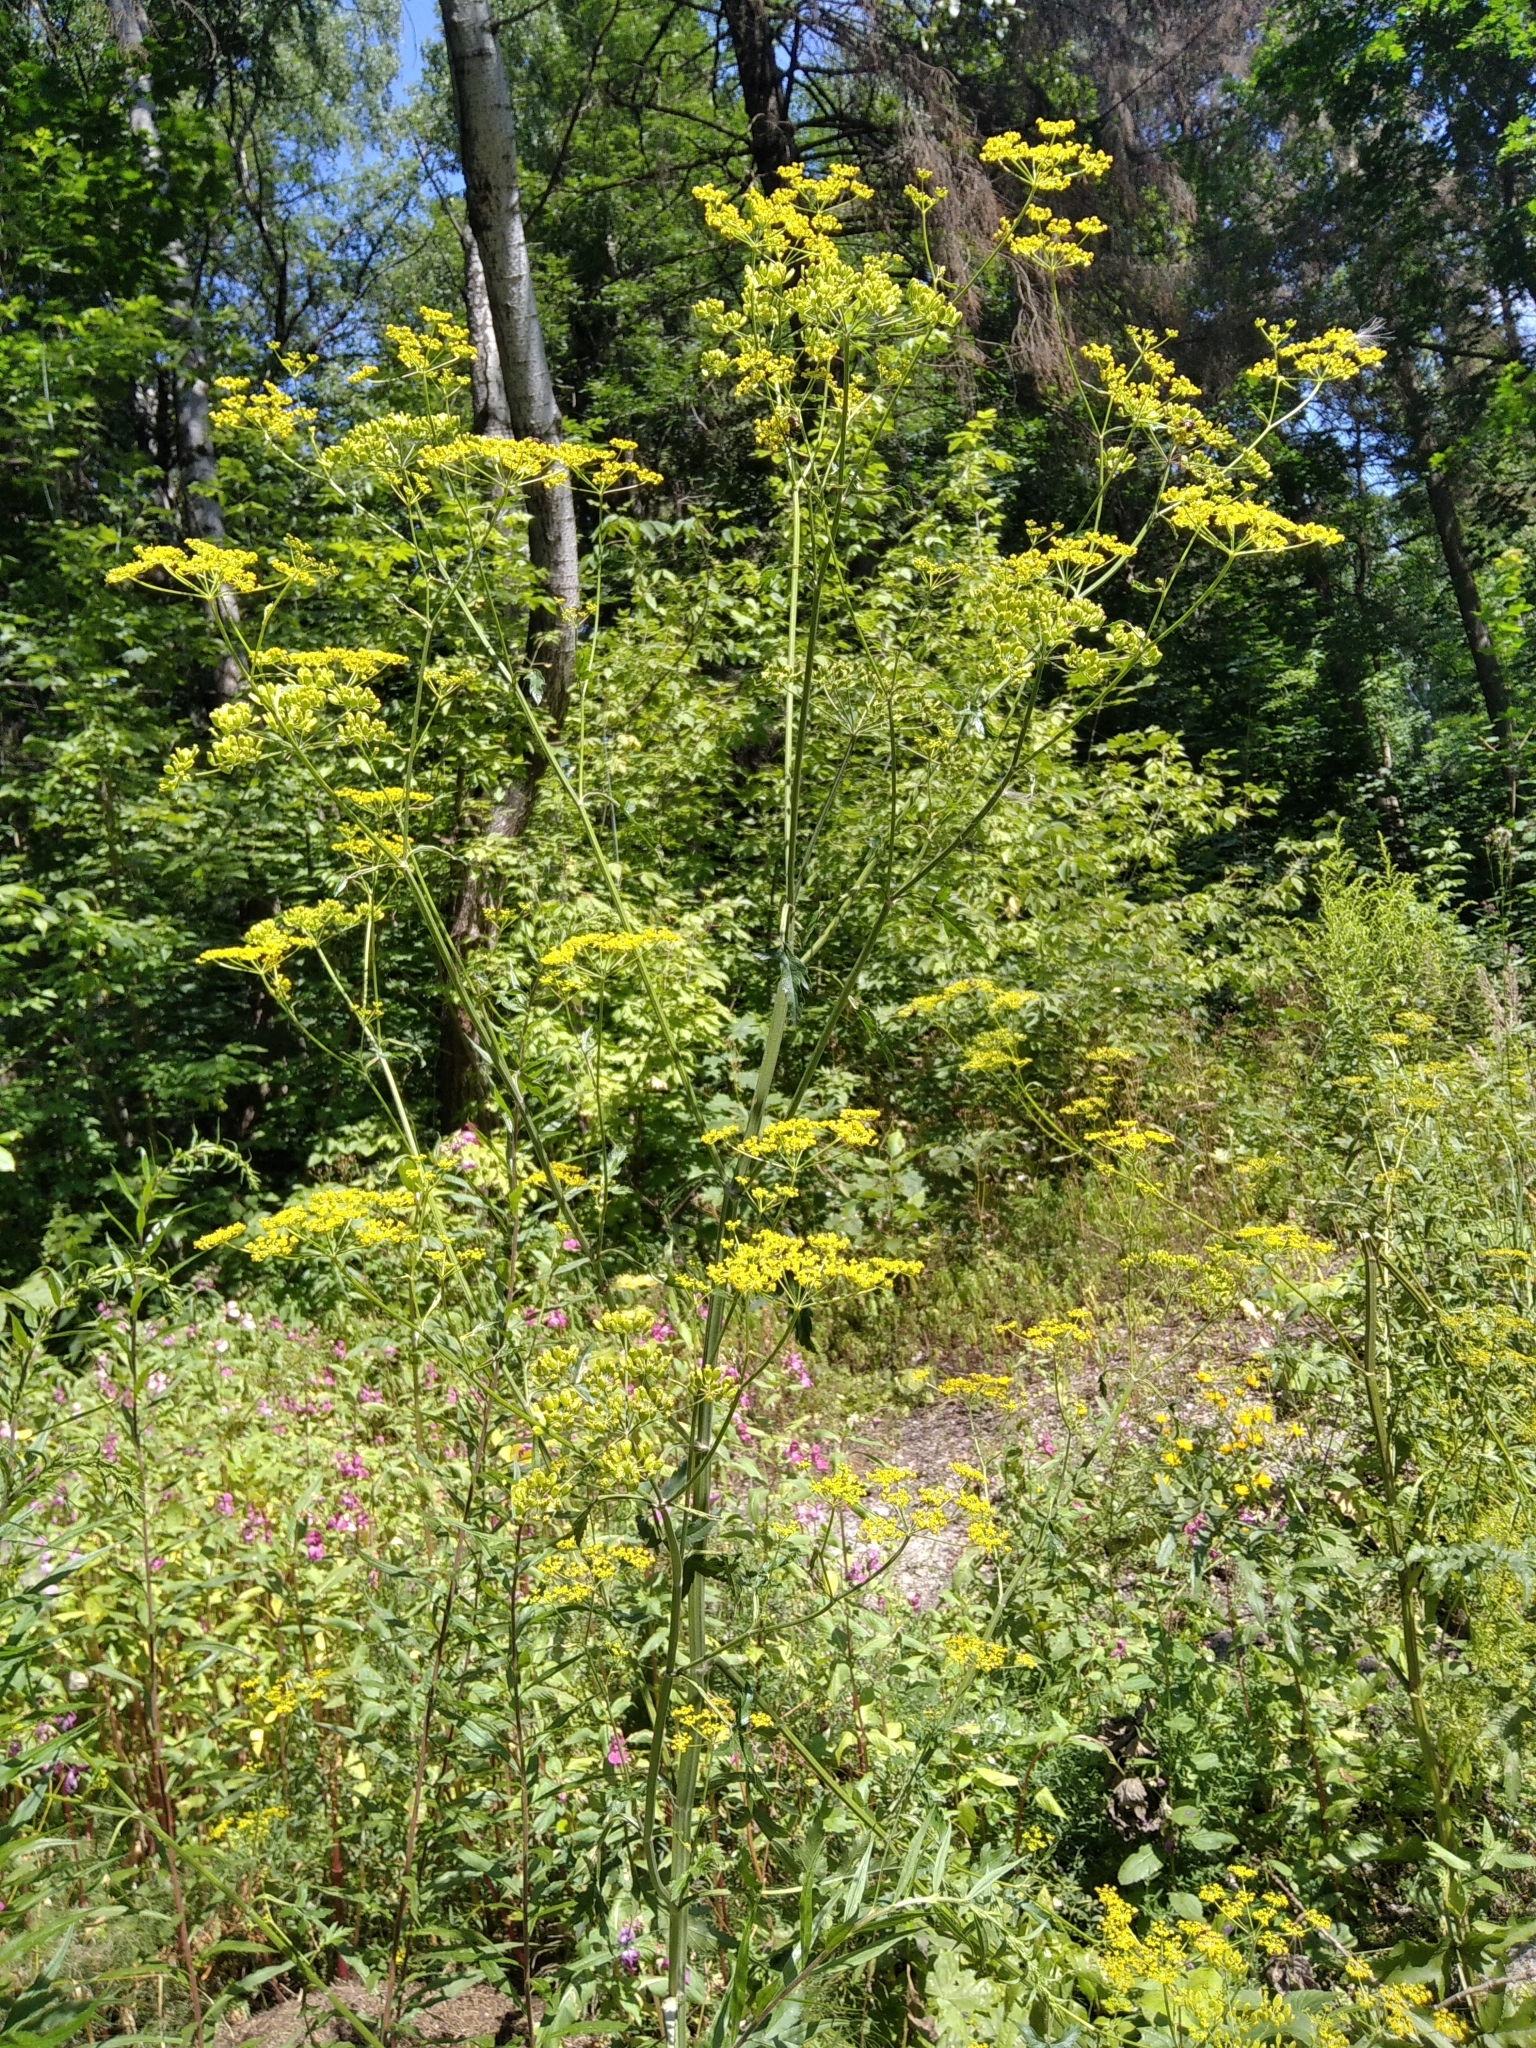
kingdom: Plantae
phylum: Tracheophyta
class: Magnoliopsida
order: Apiales
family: Apiaceae
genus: Pastinaca
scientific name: Pastinaca sativa
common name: Wild parsnip
